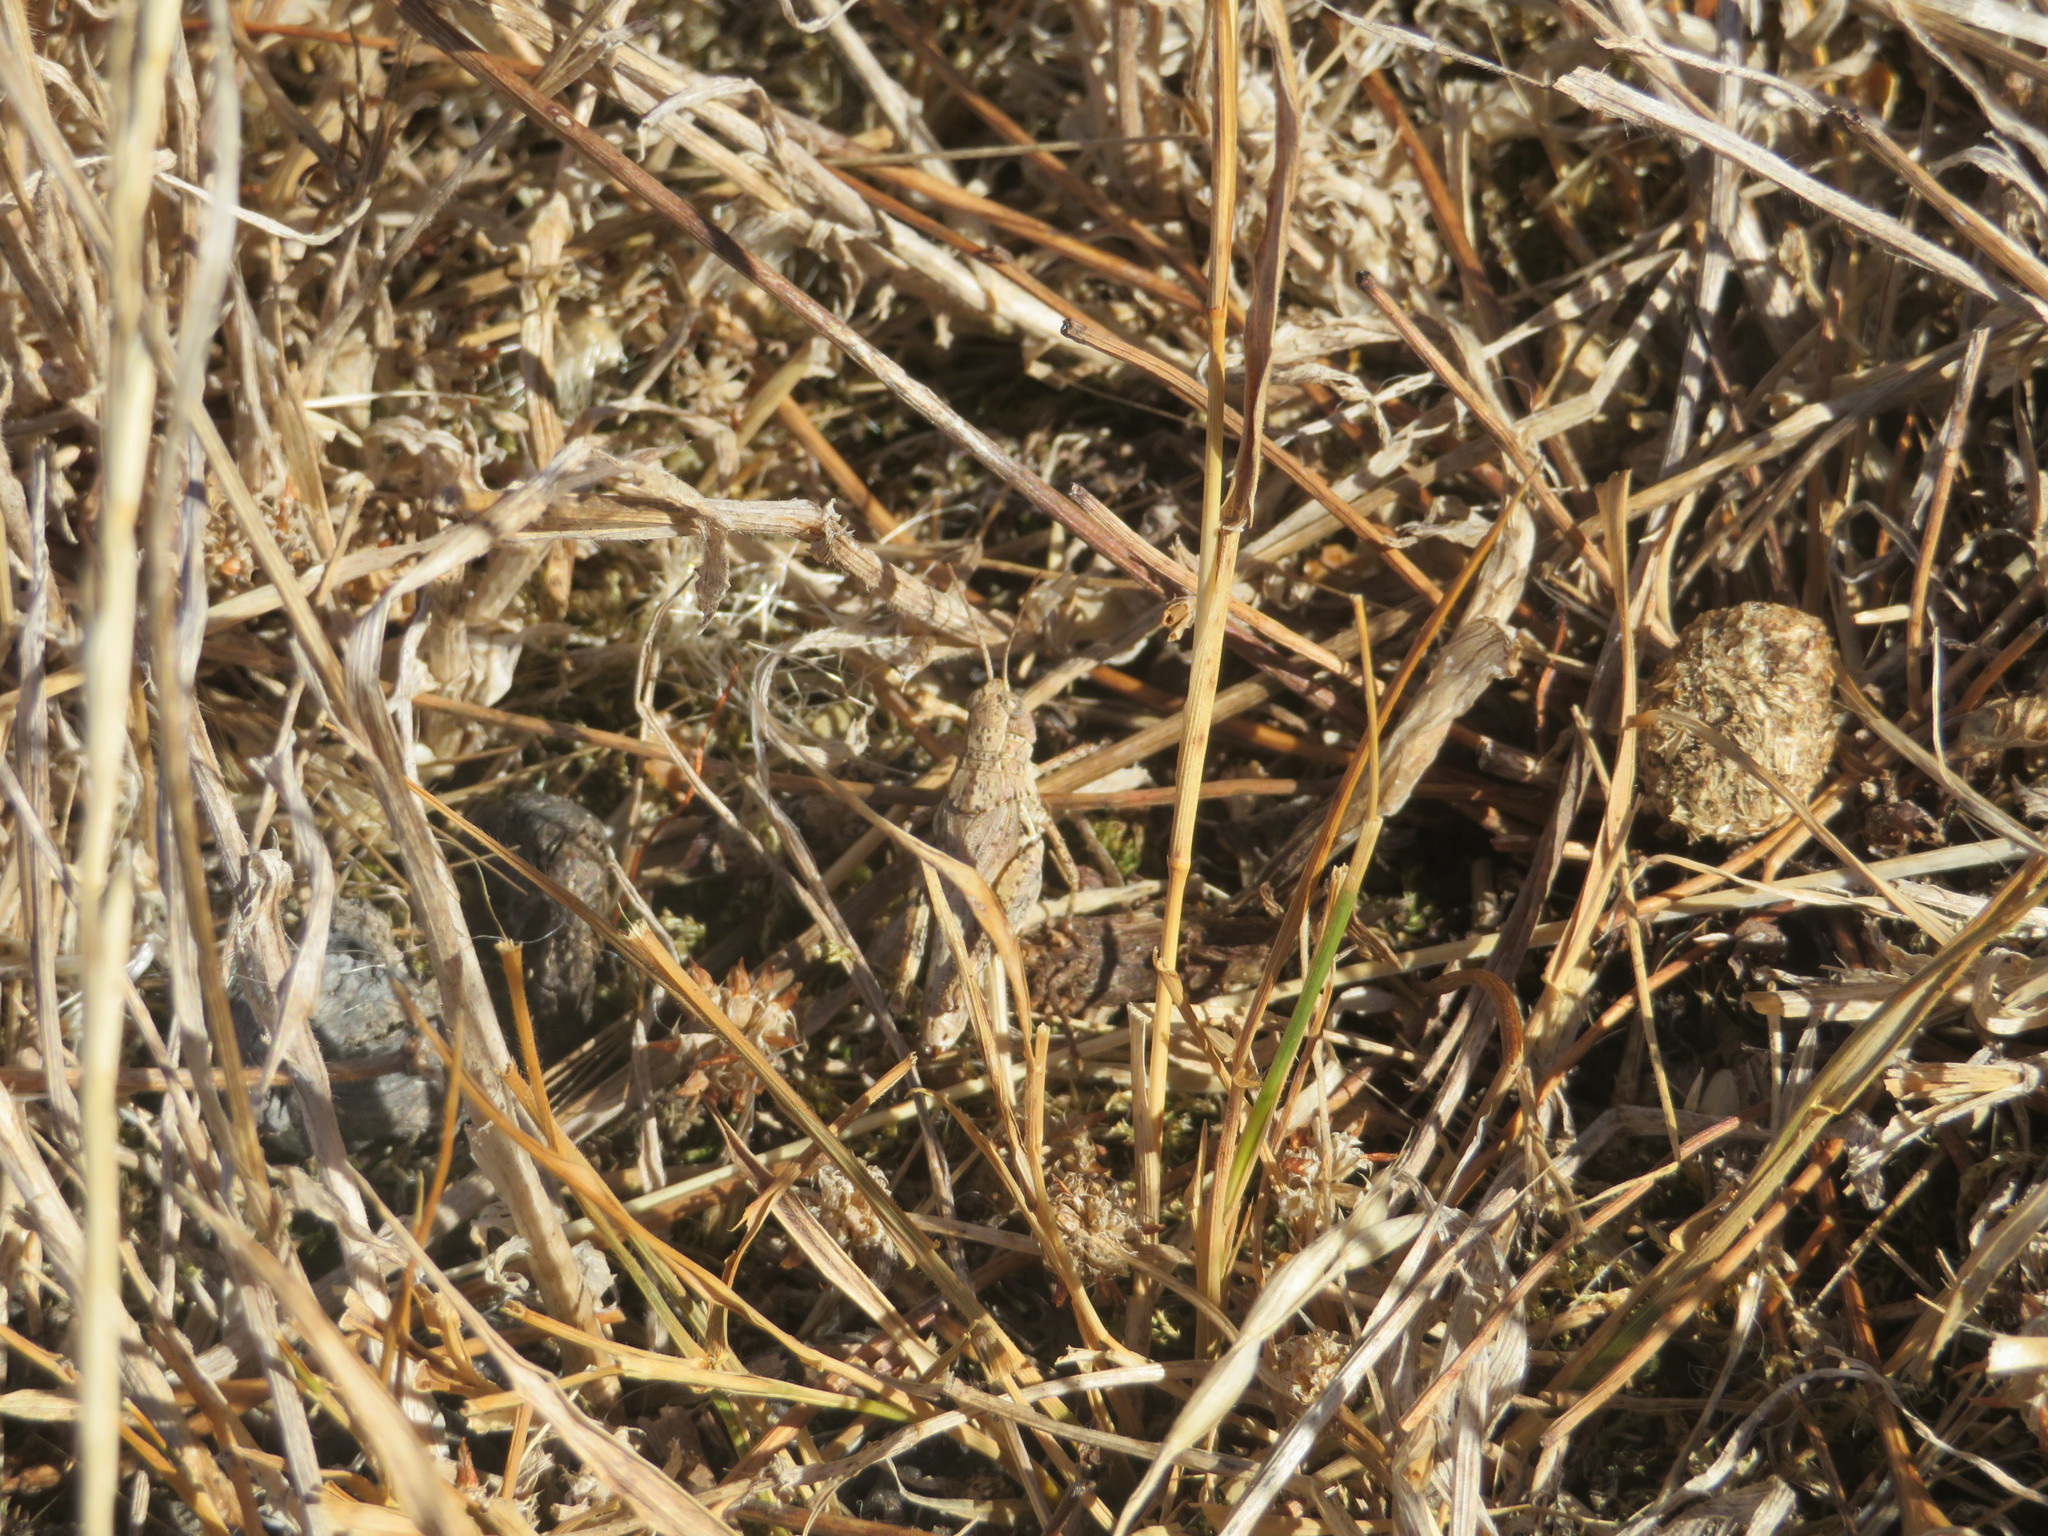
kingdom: Animalia
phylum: Arthropoda
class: Insecta
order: Orthoptera
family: Acrididae
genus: Phaulacridium
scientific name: Phaulacridium marginale
